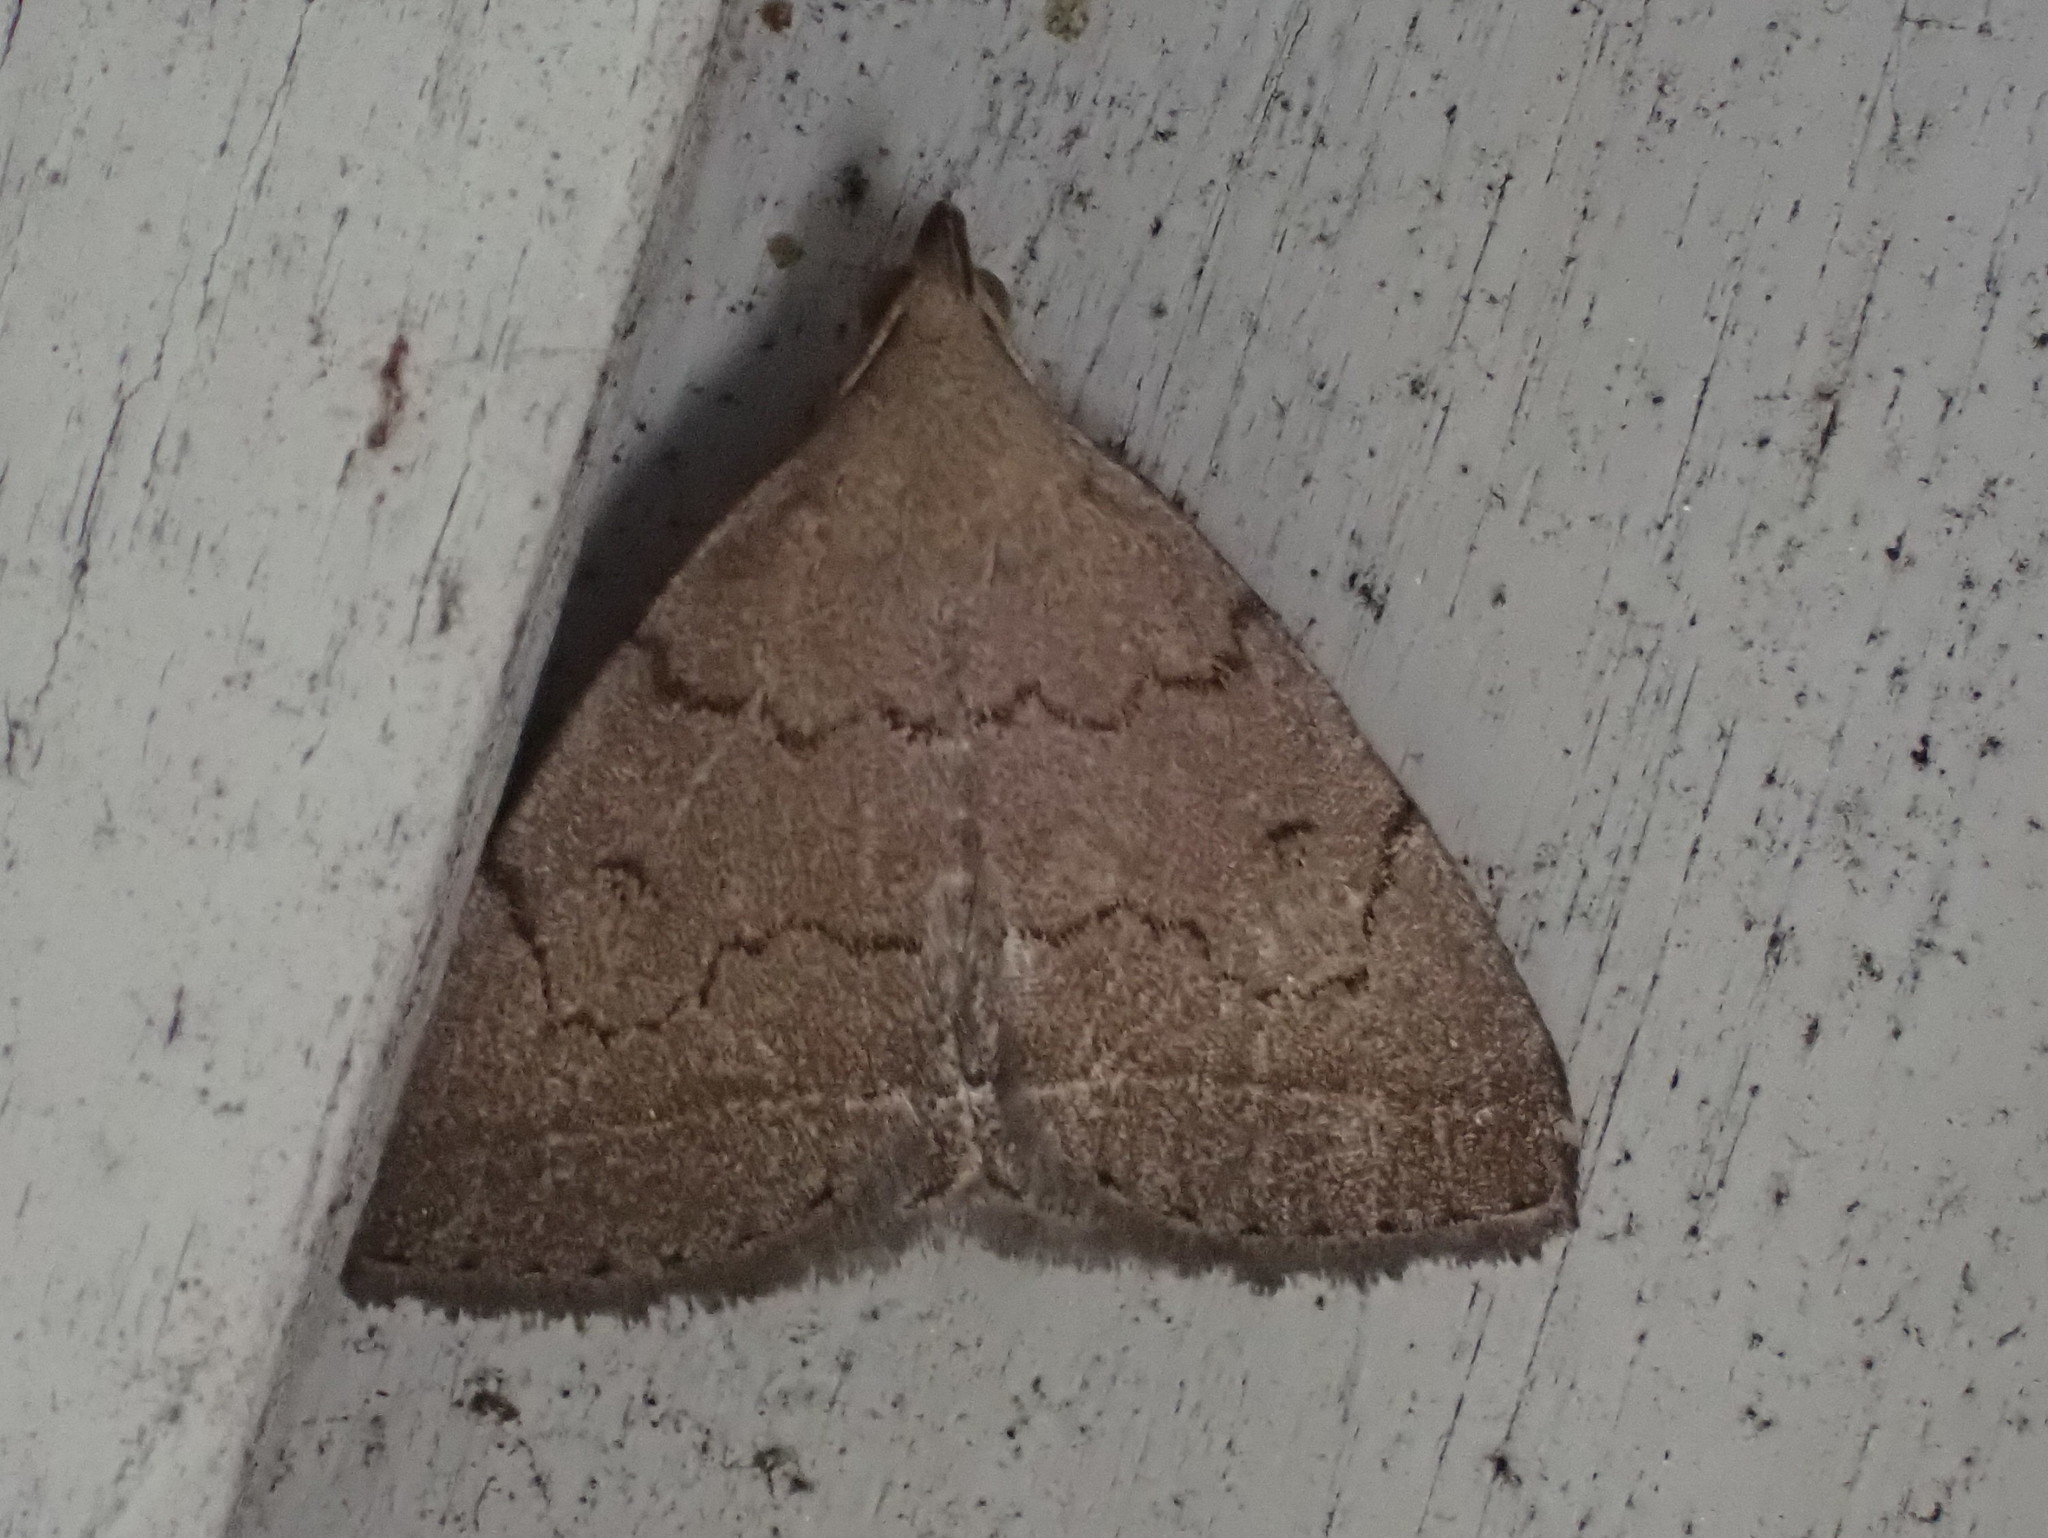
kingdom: Animalia
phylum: Arthropoda
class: Insecta
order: Lepidoptera
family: Erebidae
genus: Zanclognatha
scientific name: Zanclognatha protumnusalis
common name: Complex fan-foot
